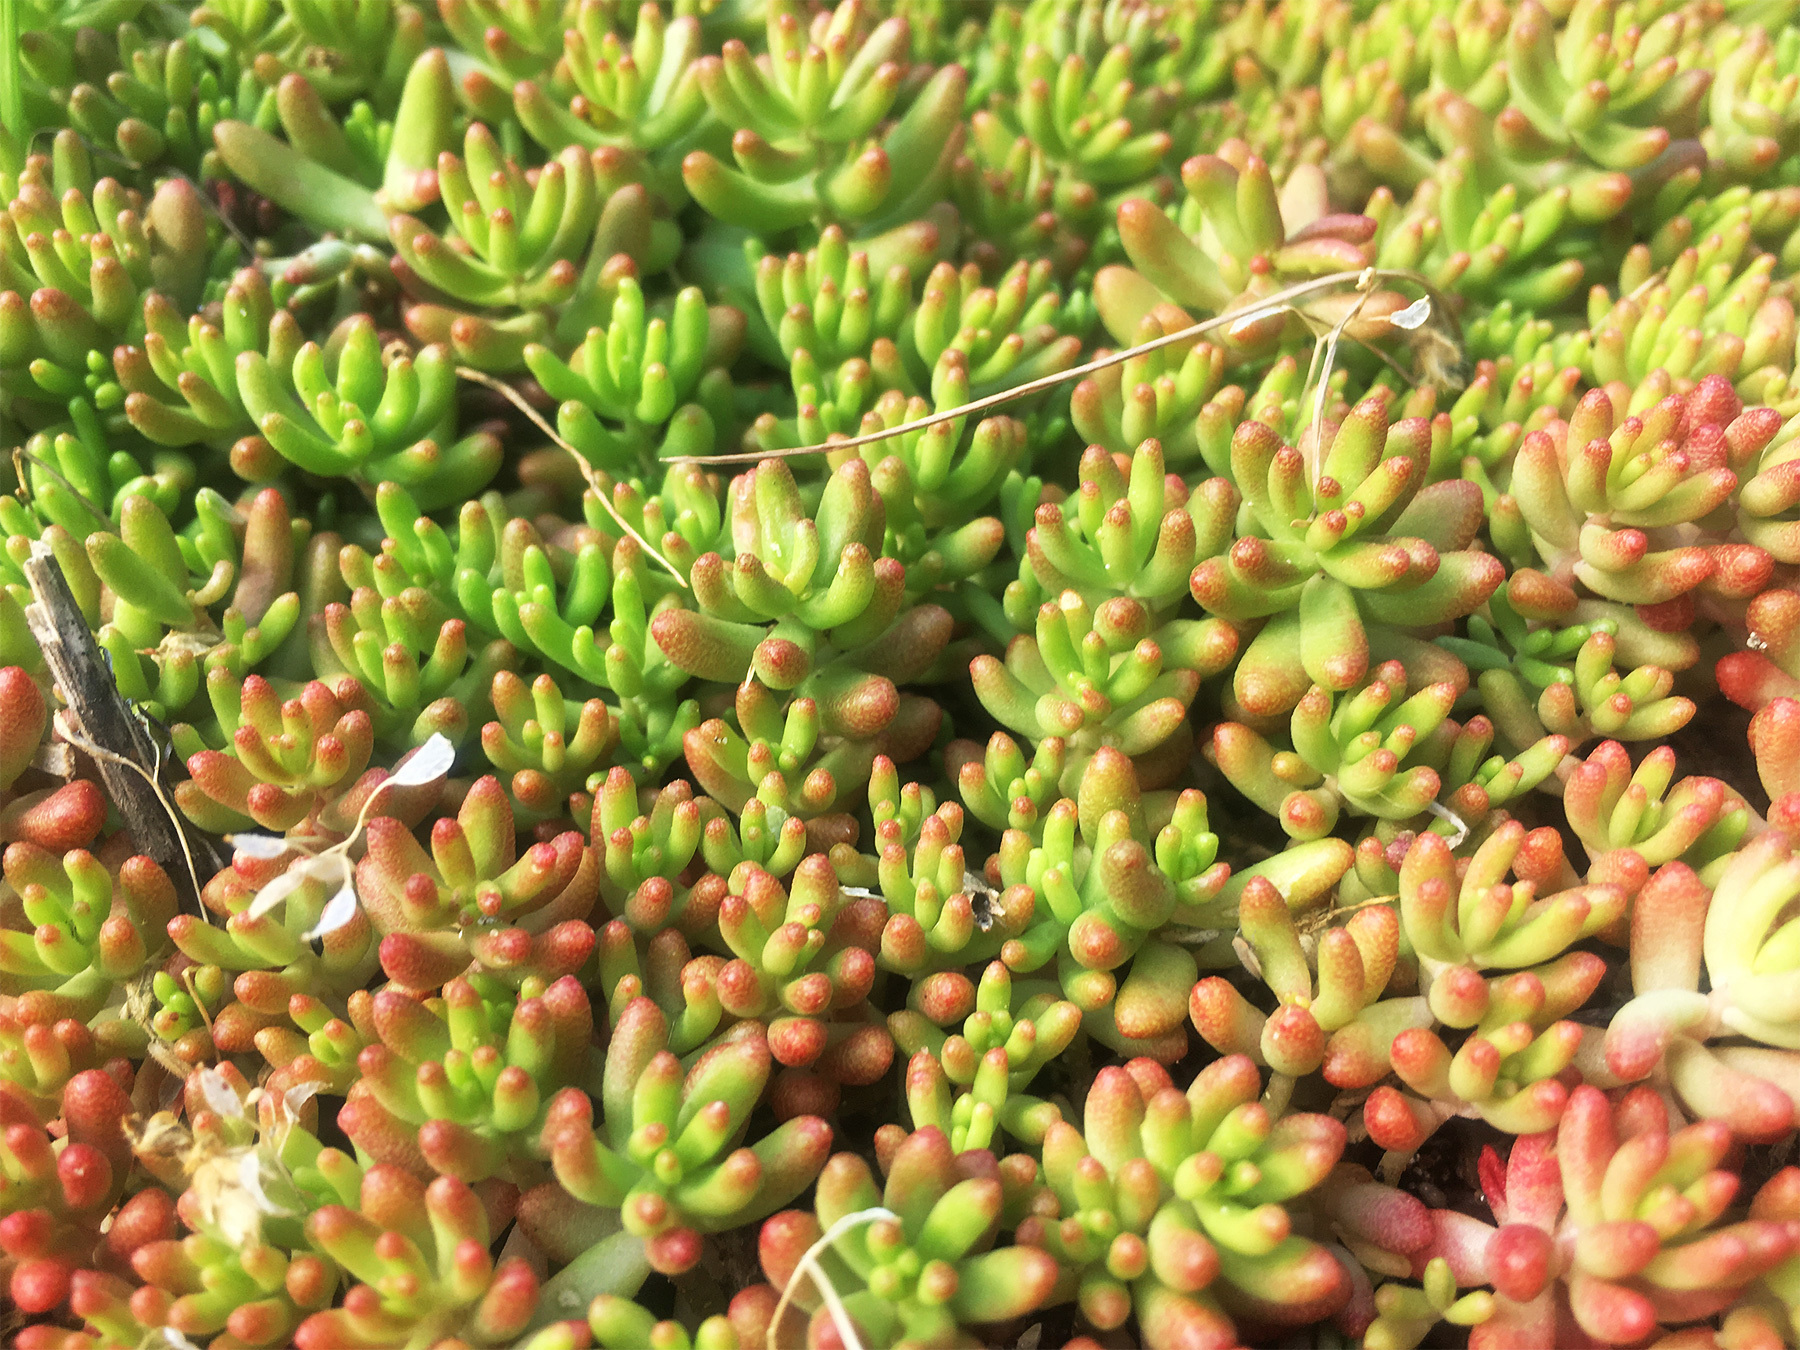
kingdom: Plantae
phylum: Tracheophyta
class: Magnoliopsida
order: Saxifragales
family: Crassulaceae
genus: Sedum
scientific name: Sedum album
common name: White stonecrop
